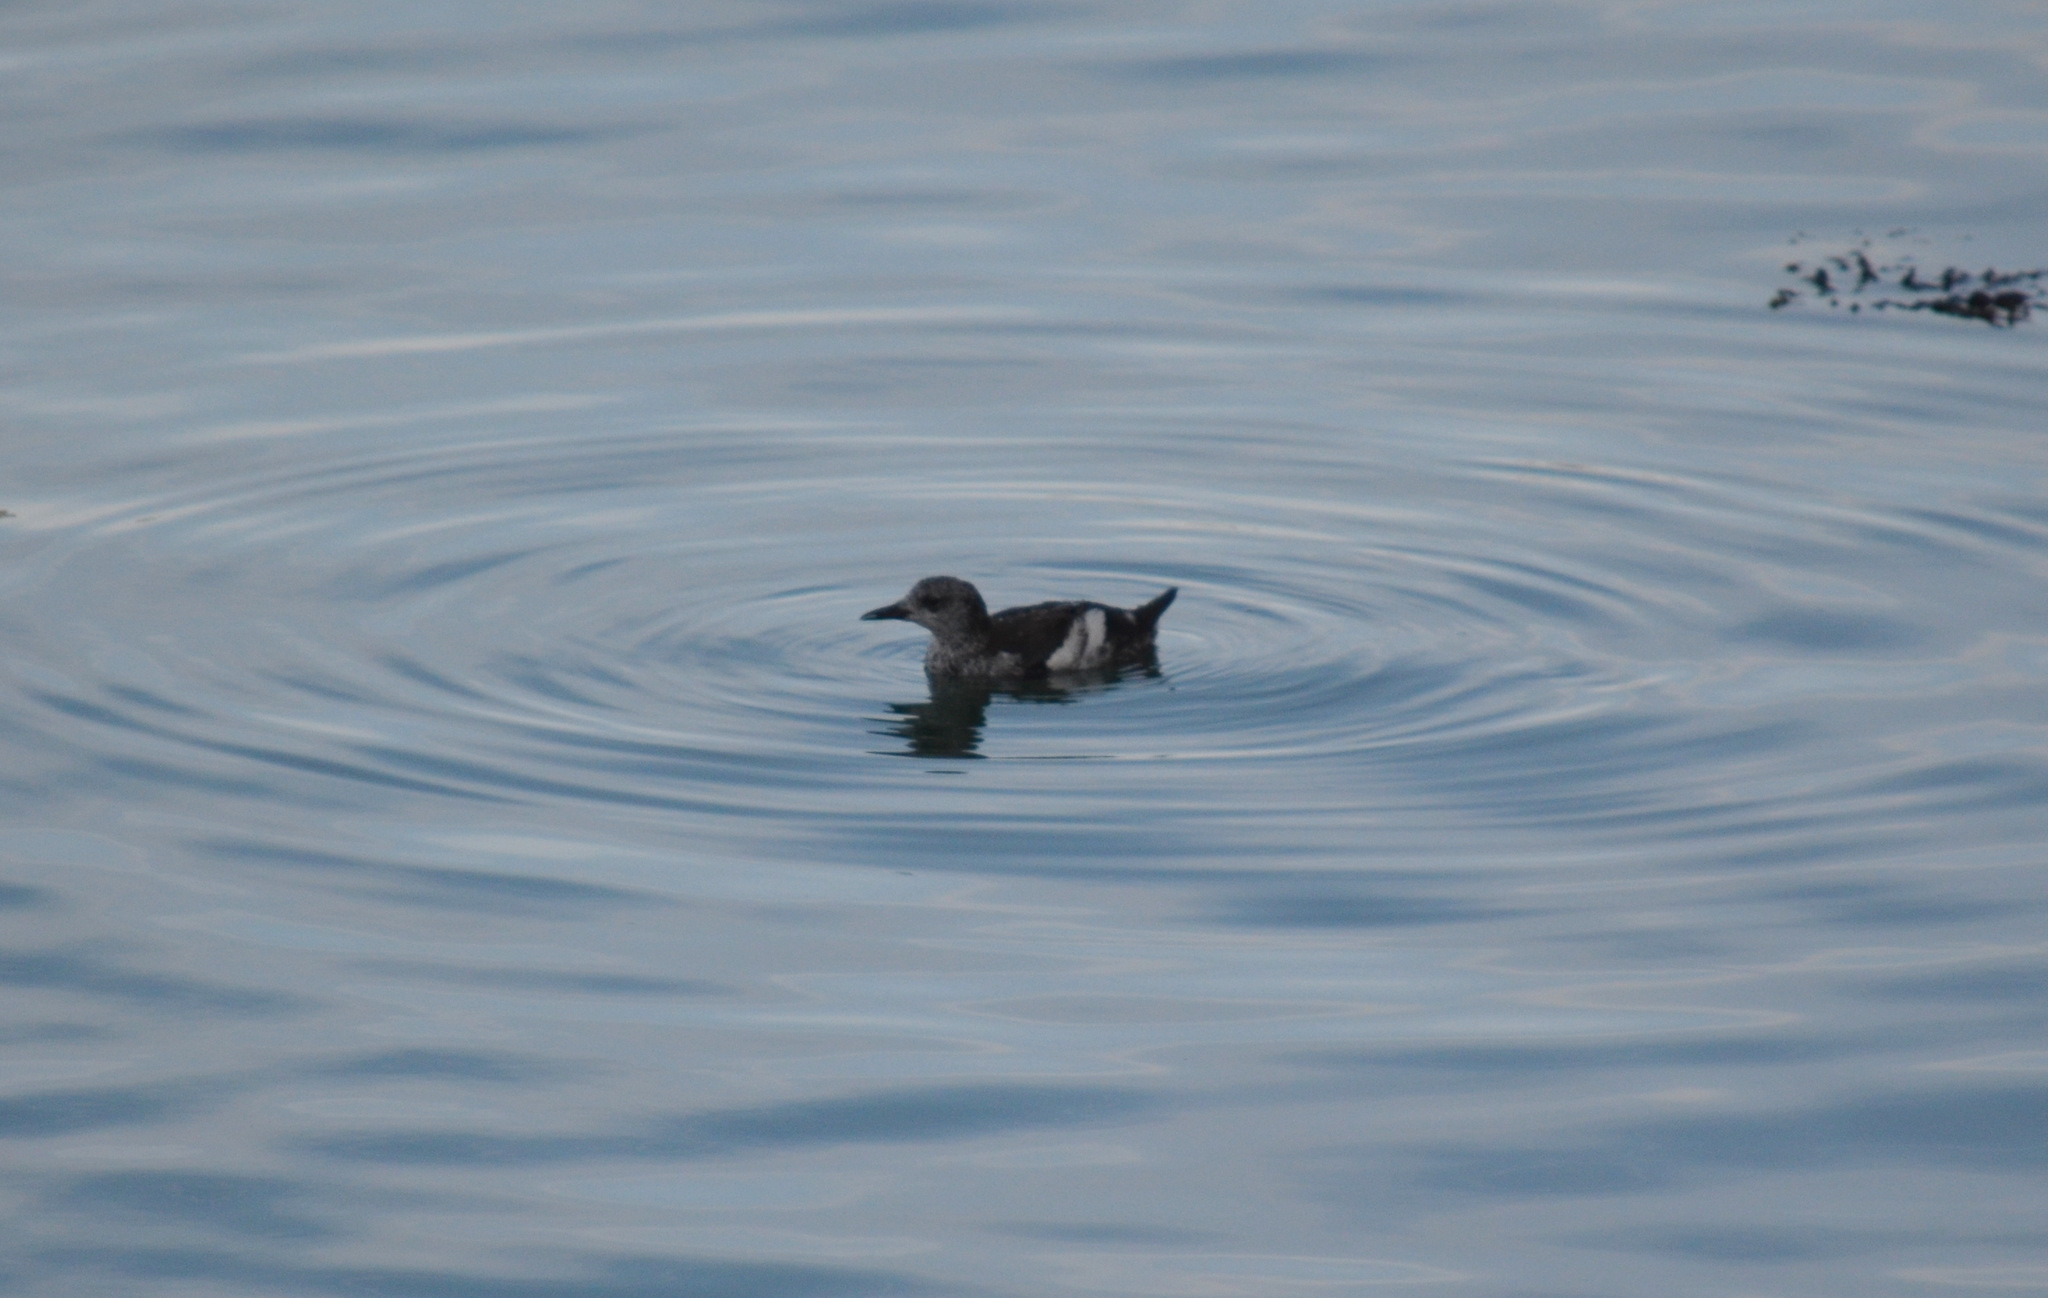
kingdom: Animalia
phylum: Chordata
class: Aves
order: Charadriiformes
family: Alcidae
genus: Cepphus
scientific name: Cepphus grylle
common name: Black guillemot
